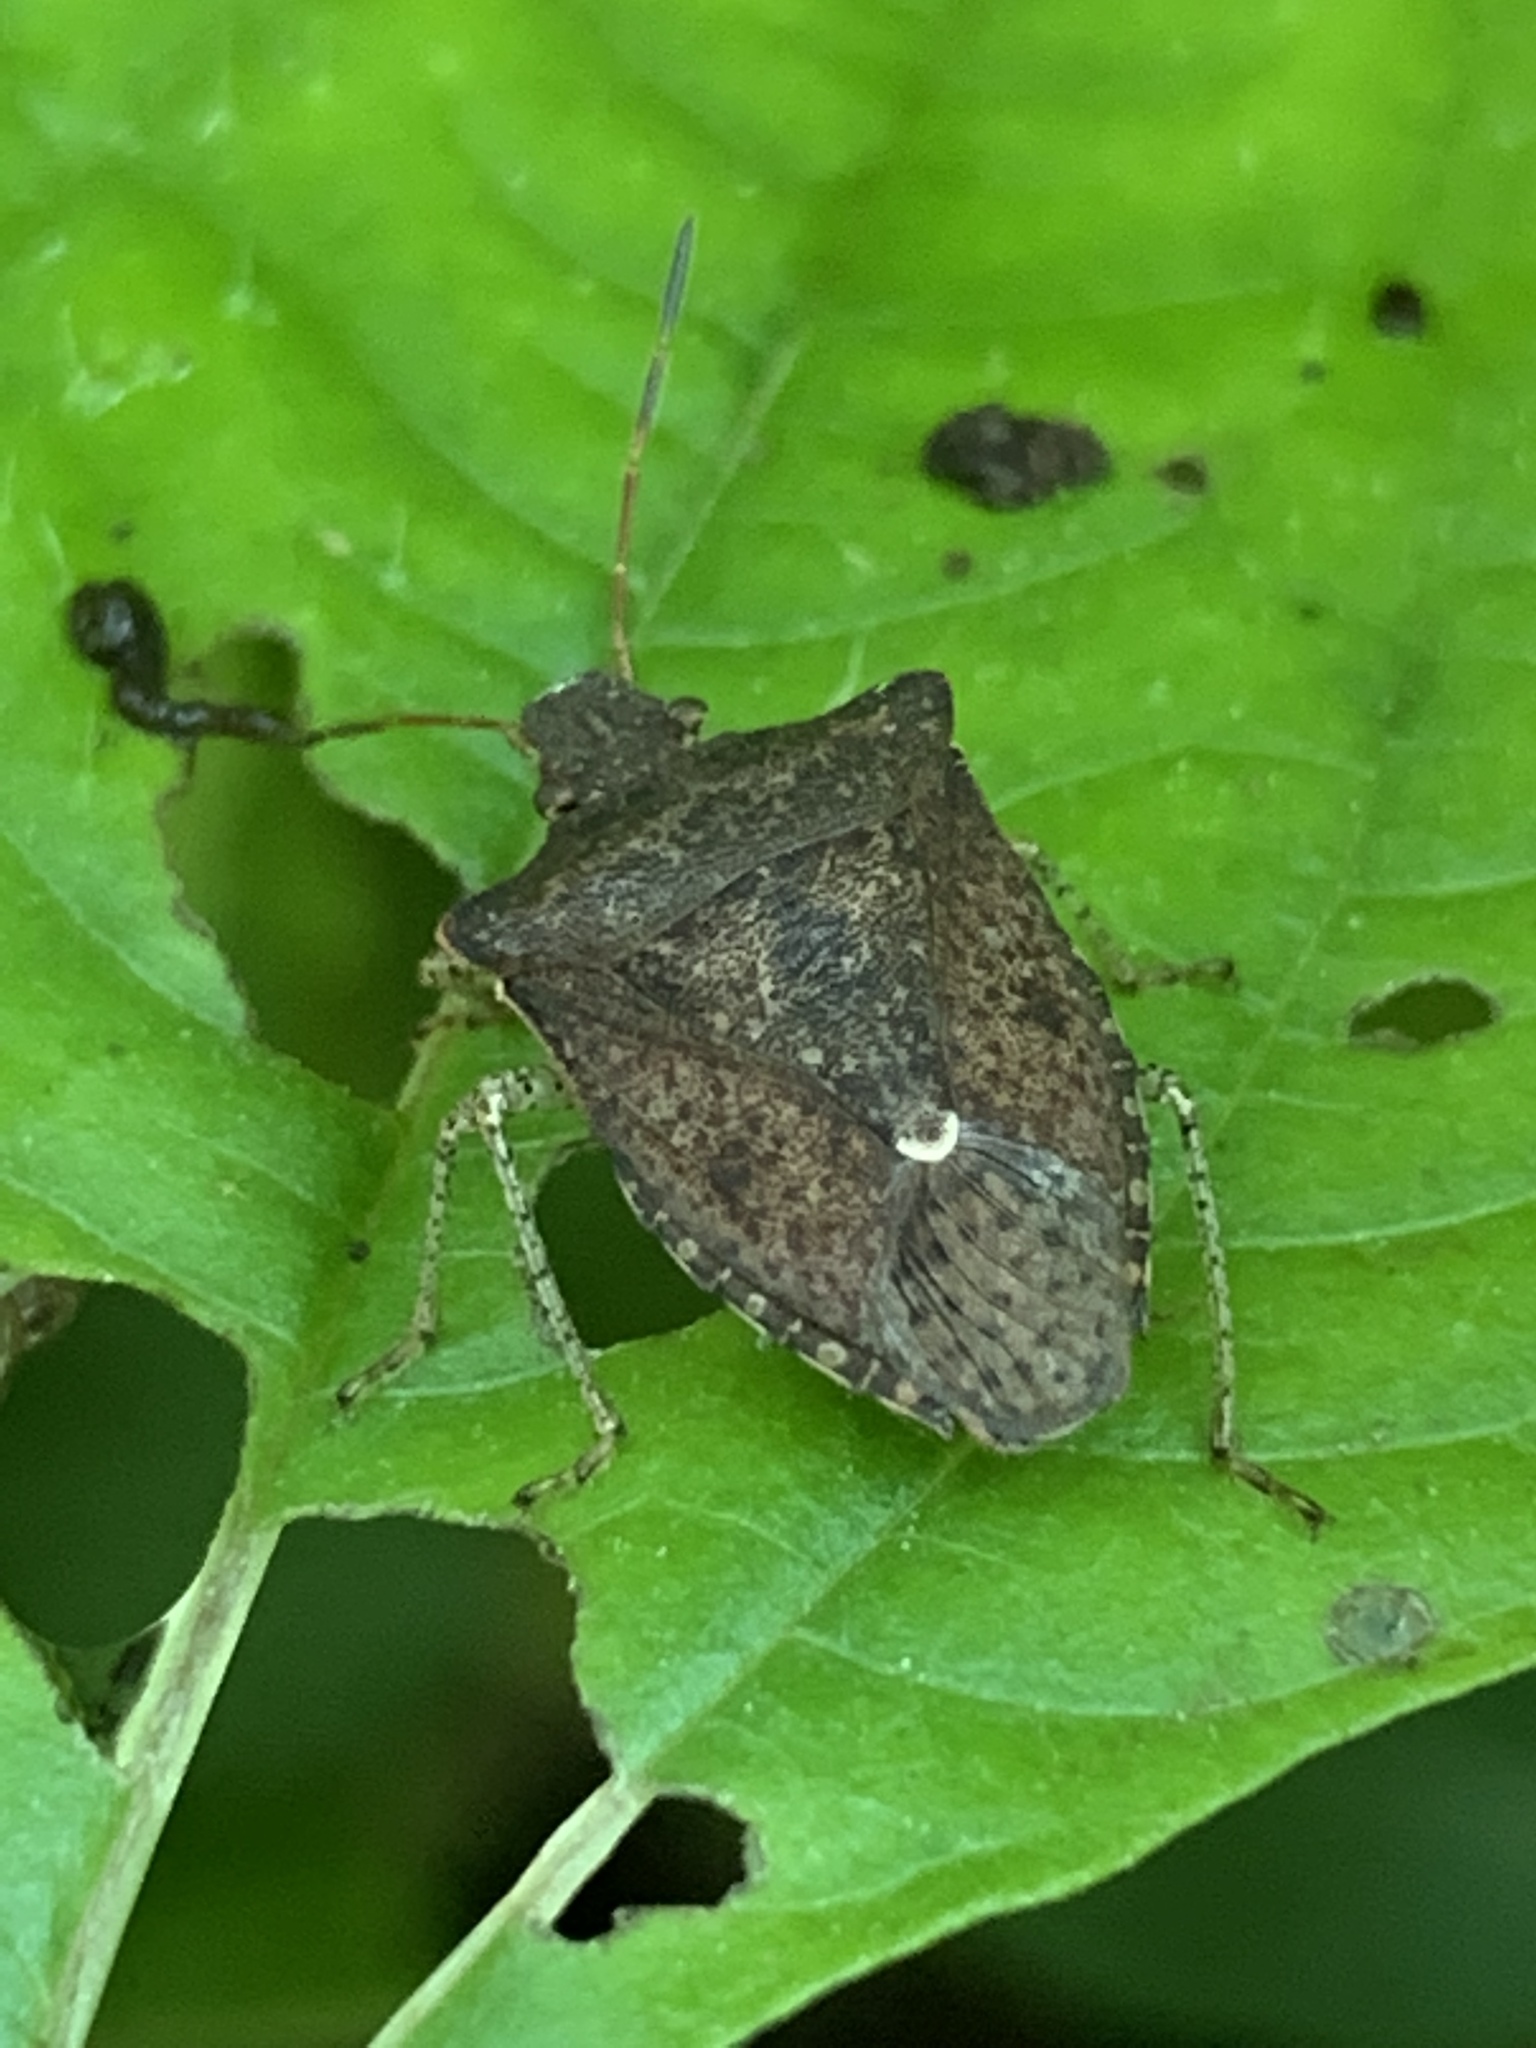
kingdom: Animalia
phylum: Arthropoda
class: Insecta
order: Hemiptera
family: Pentatomidae
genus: Euschistus
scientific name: Euschistus tristigmus
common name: Dusky stink bug
